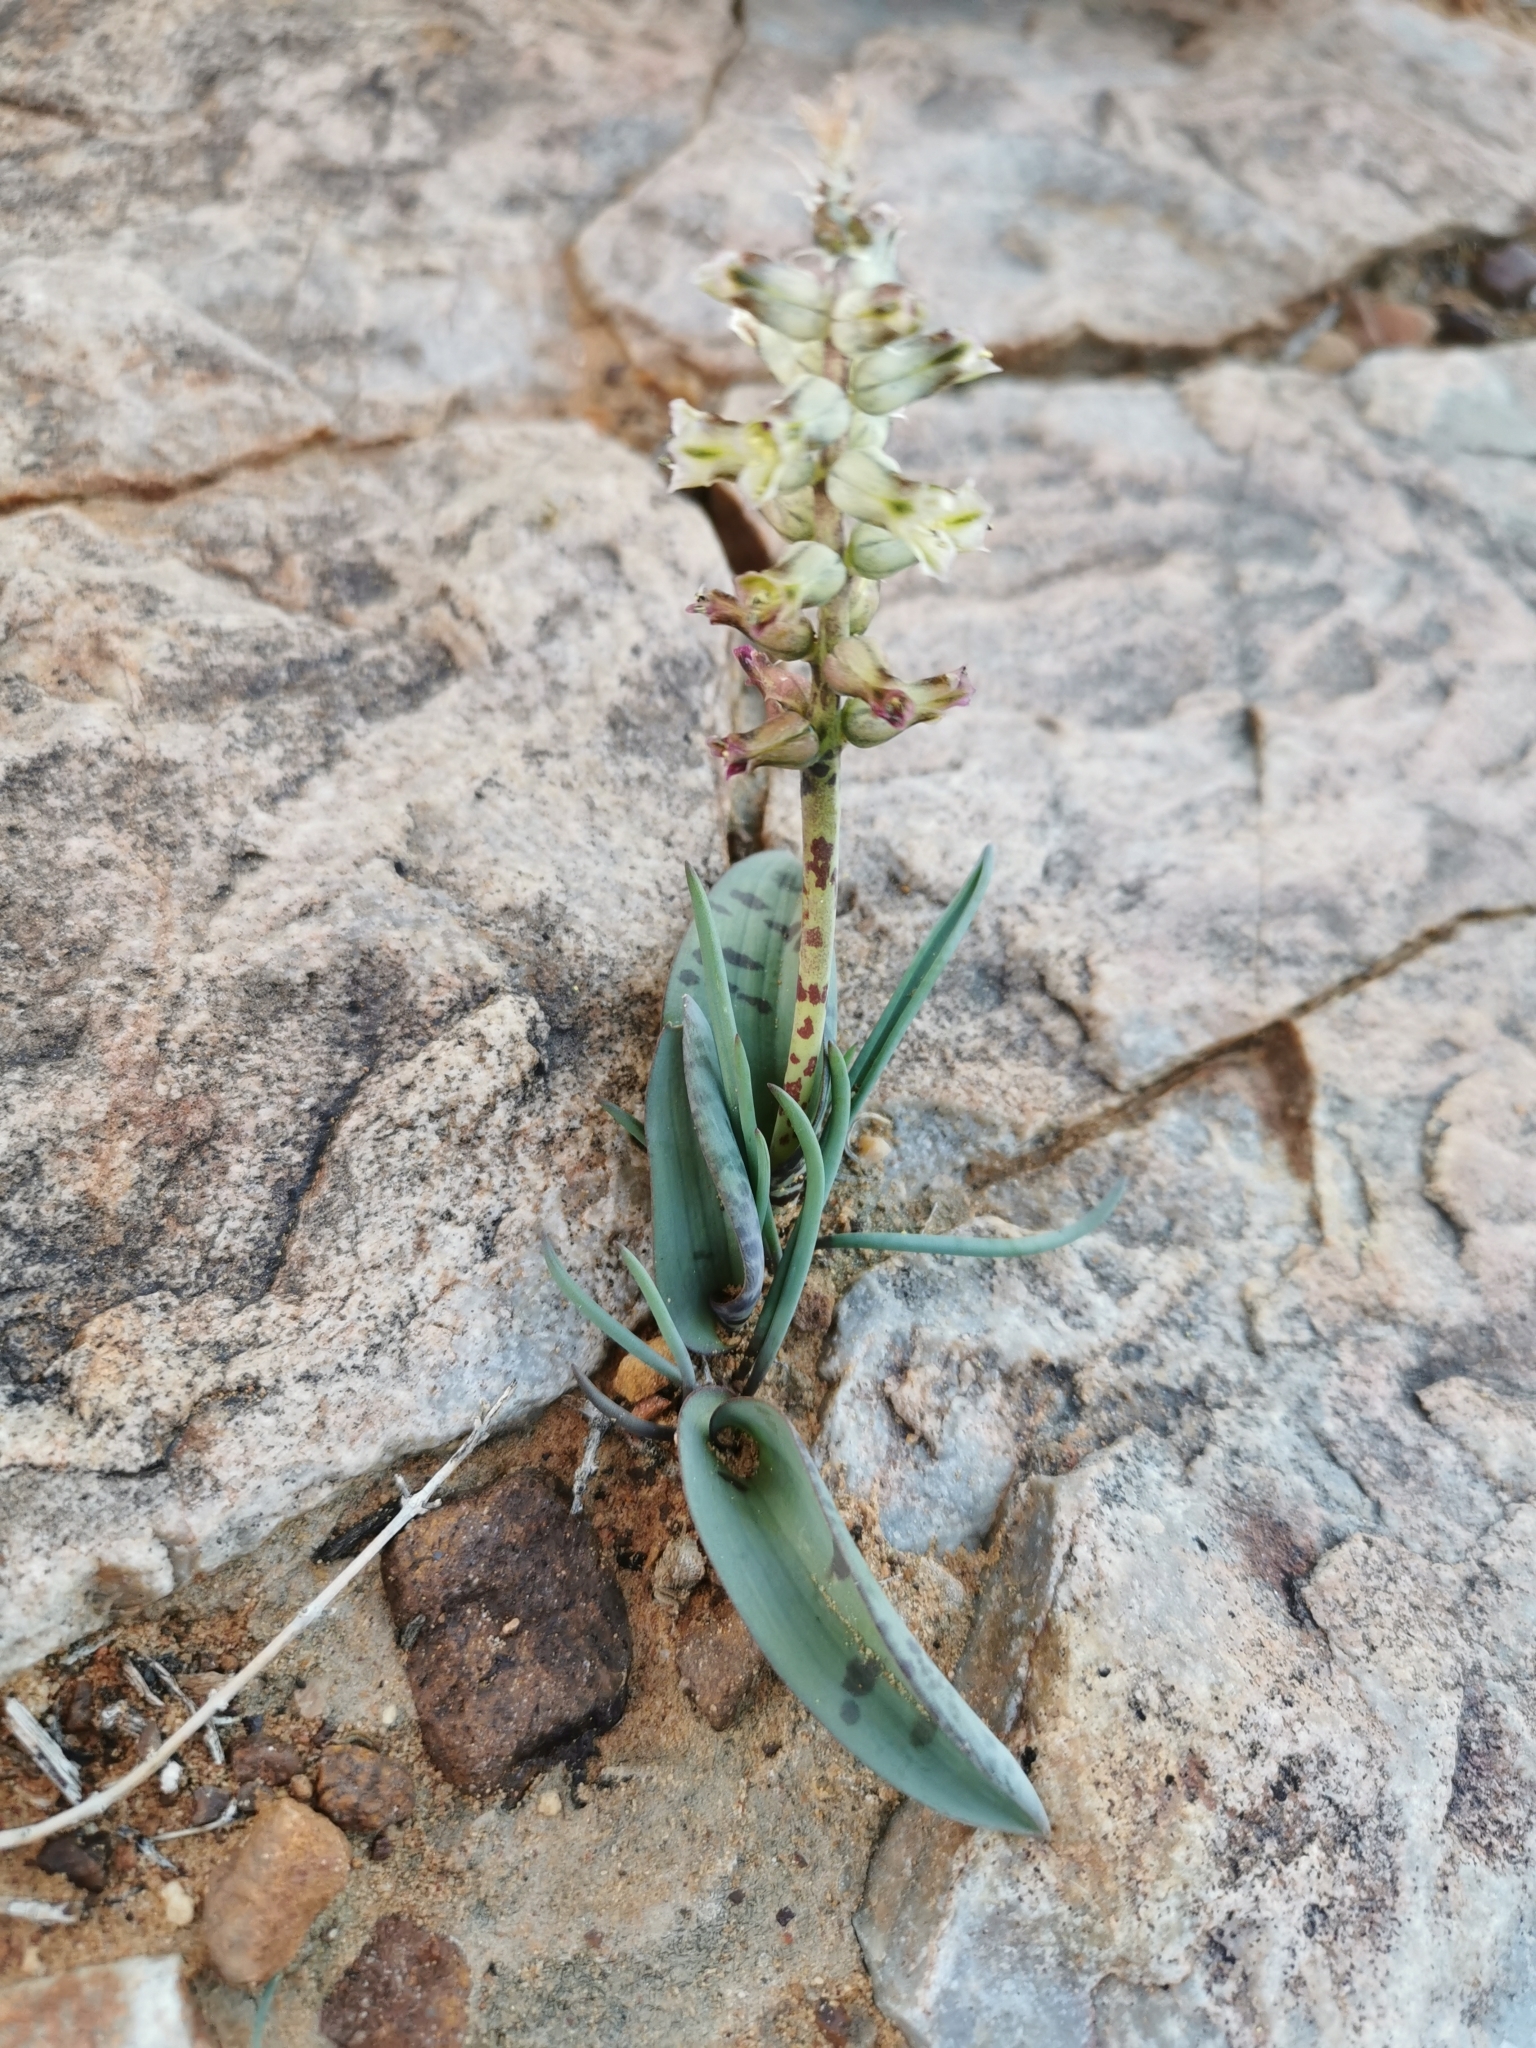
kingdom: Plantae
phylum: Tracheophyta
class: Liliopsida
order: Asparagales
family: Asparagaceae
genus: Lachenalia
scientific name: Lachenalia aurioliae
